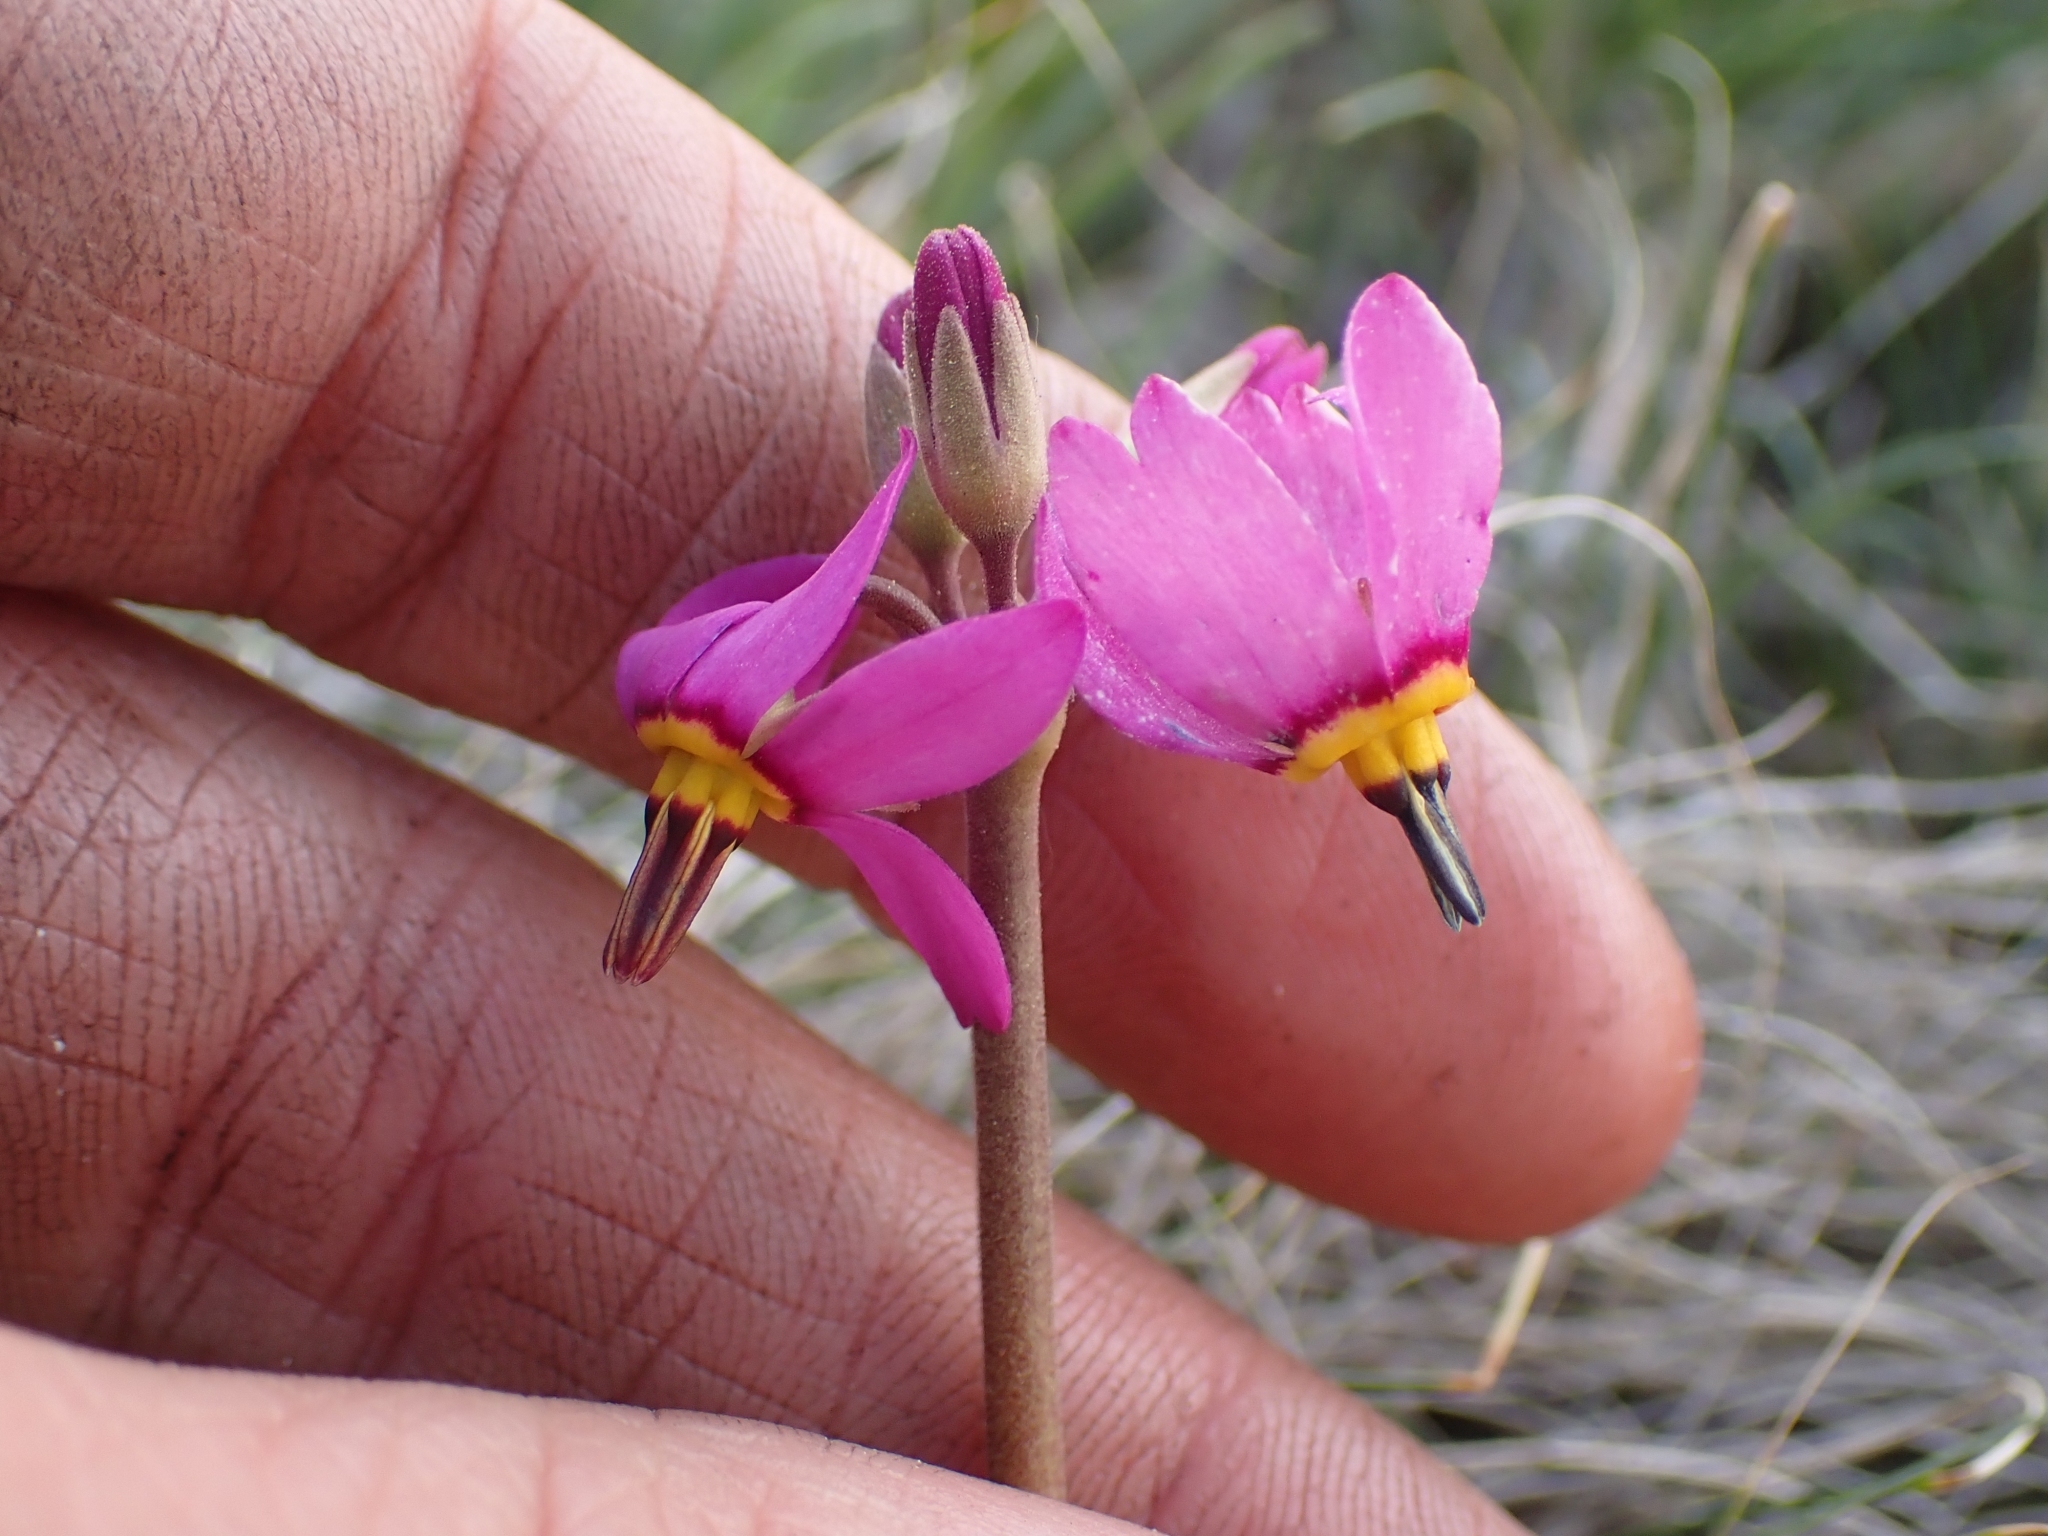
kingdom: Plantae
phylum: Tracheophyta
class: Magnoliopsida
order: Ericales
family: Primulaceae
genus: Dodecatheon
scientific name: Dodecatheon pulchellum
